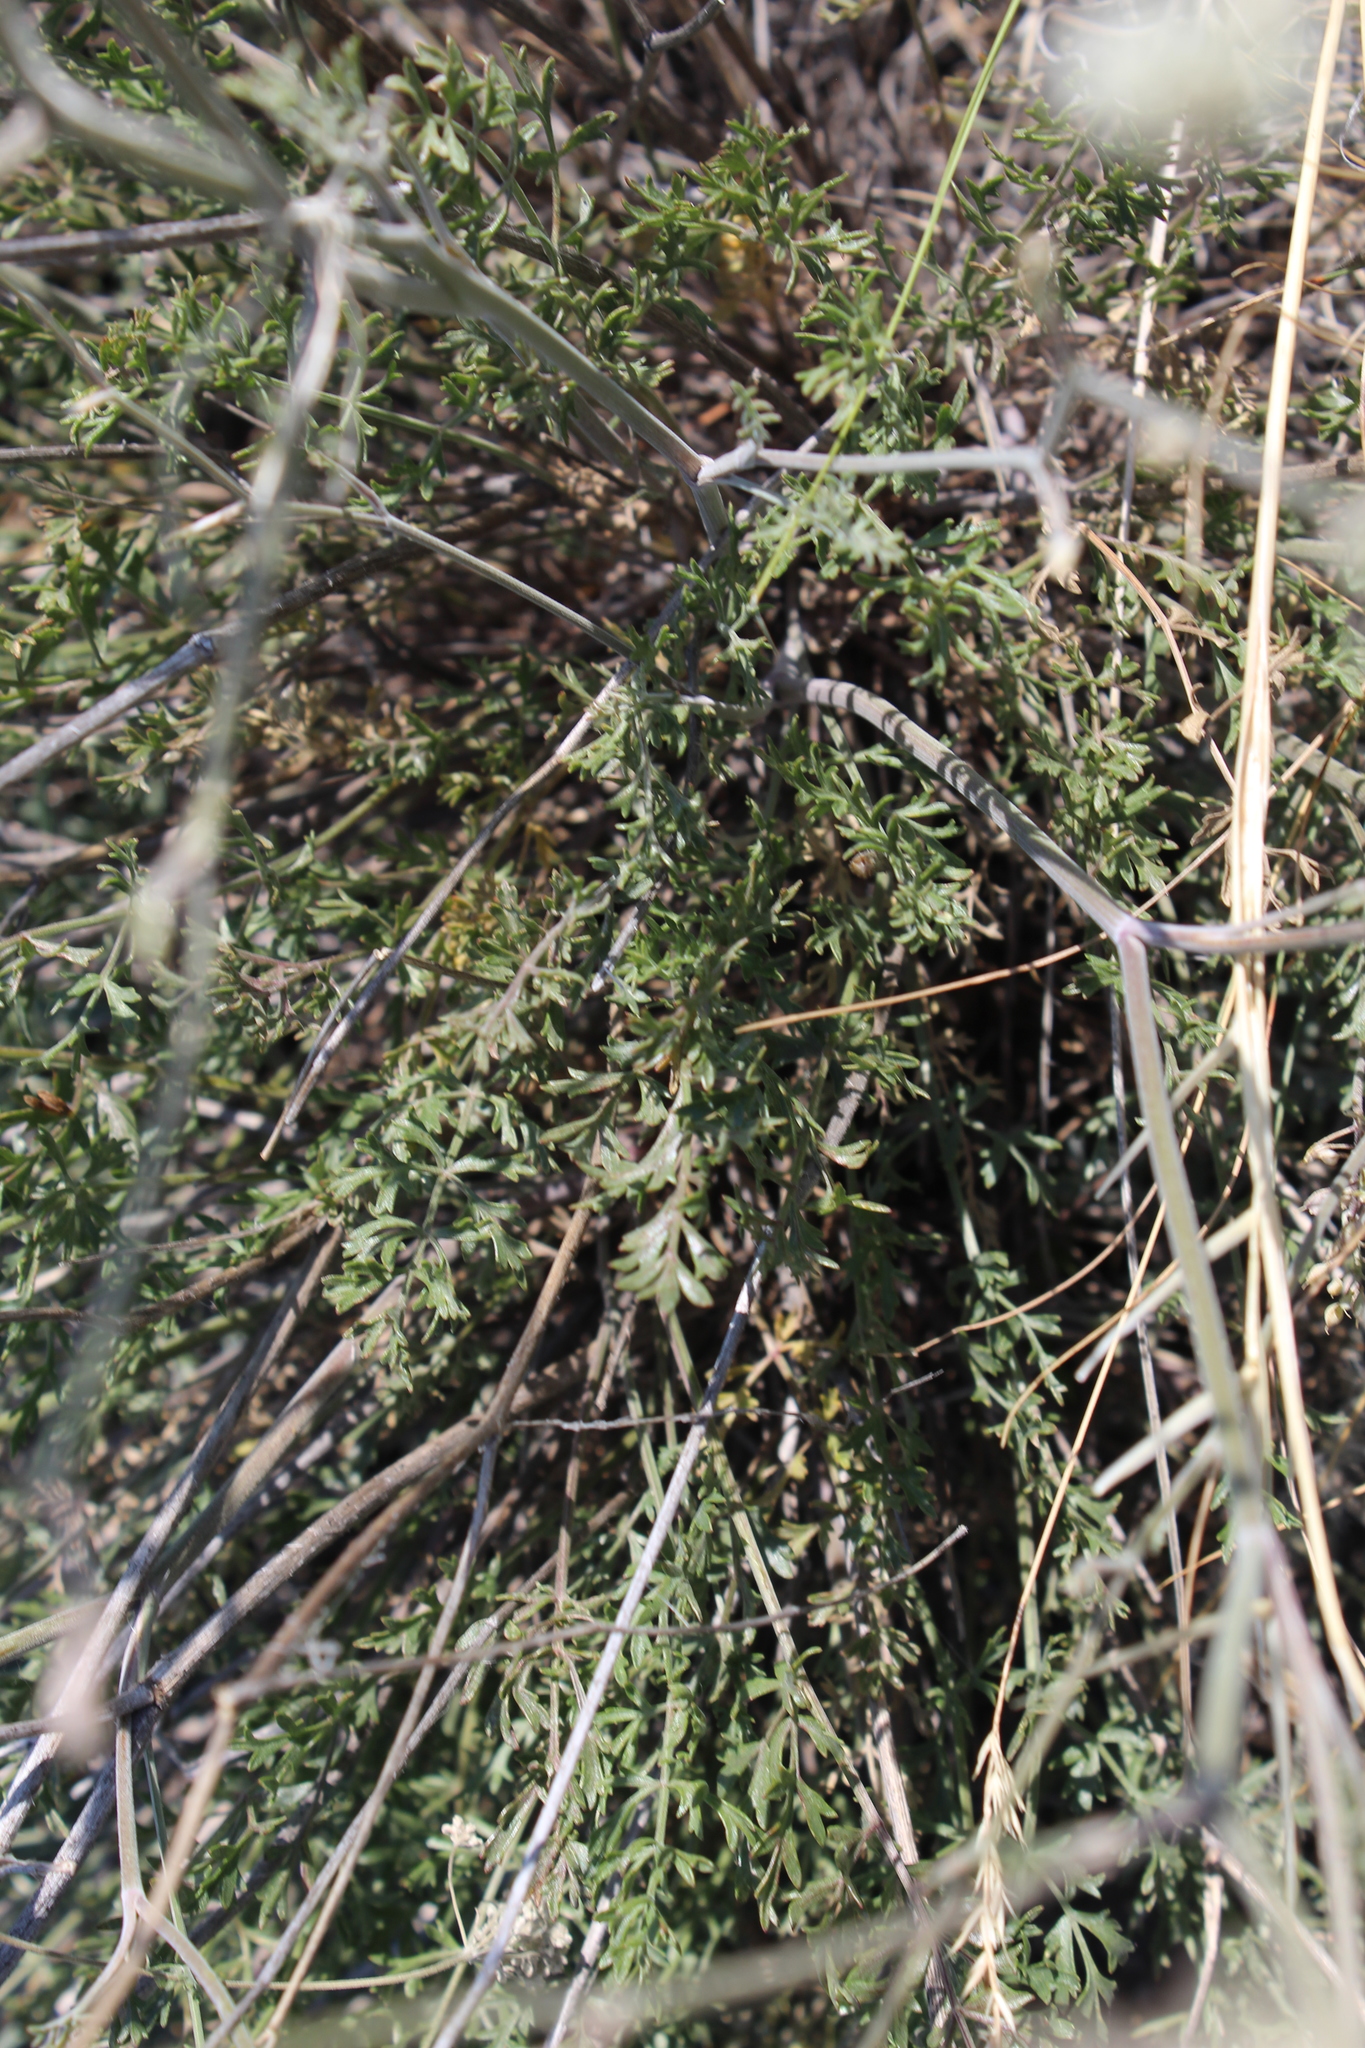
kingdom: Plantae
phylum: Tracheophyta
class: Magnoliopsida
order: Apiales
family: Apiaceae
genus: Pimpinella
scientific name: Pimpinella tragium
